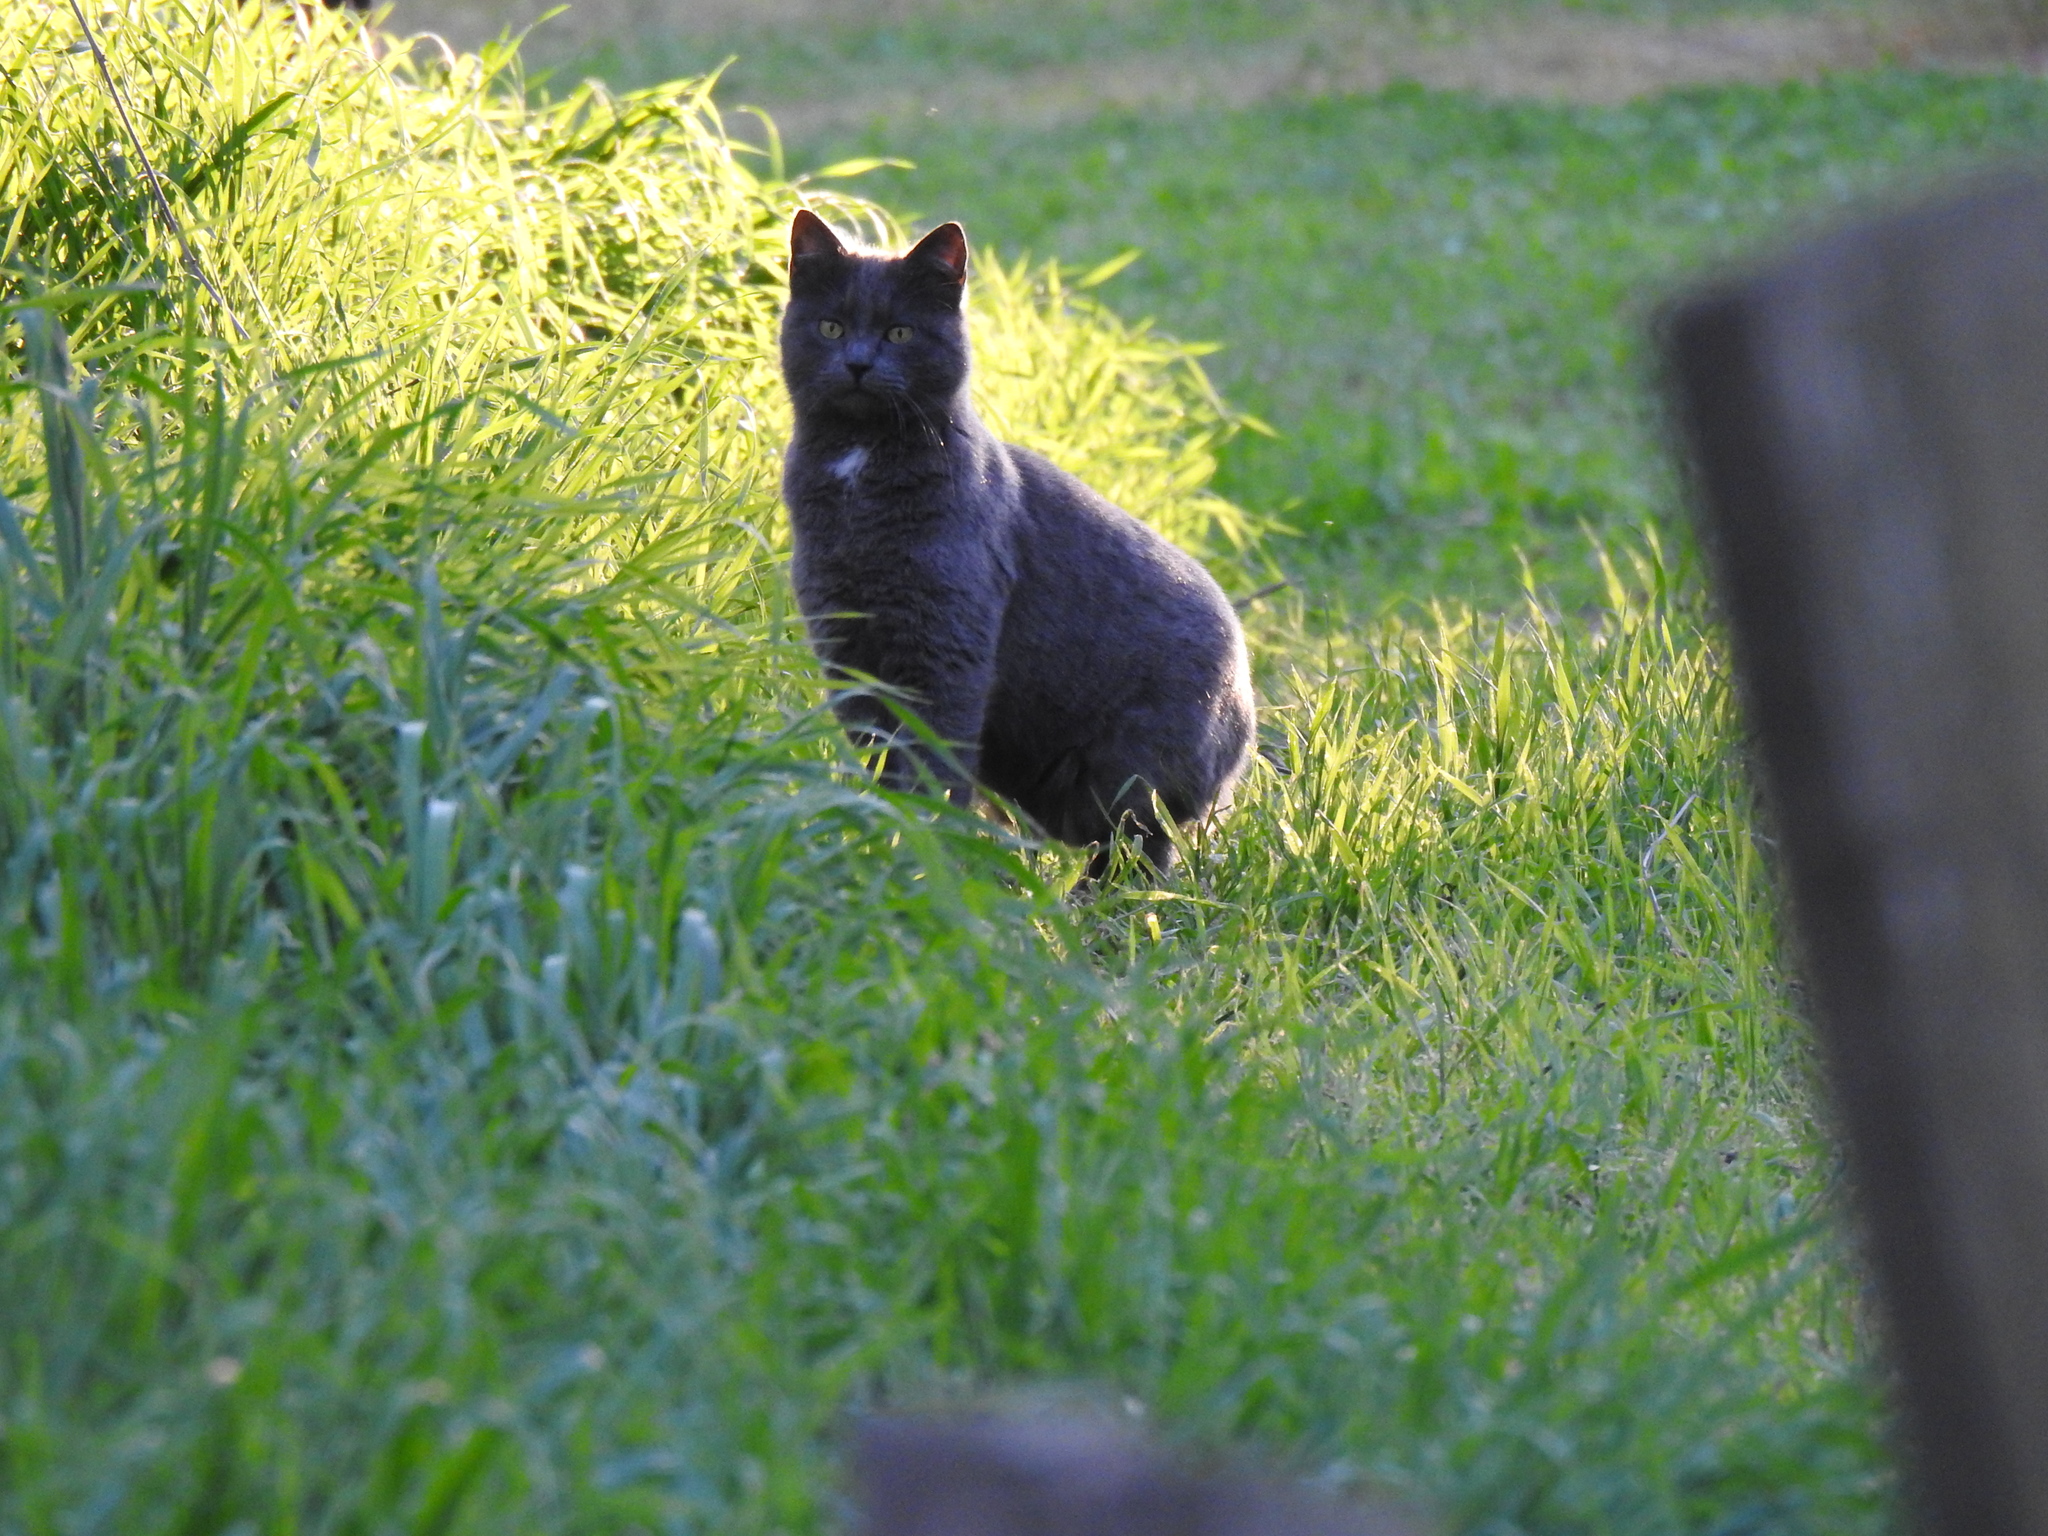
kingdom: Animalia
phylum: Chordata
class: Mammalia
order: Carnivora
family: Felidae
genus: Felis
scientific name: Felis catus
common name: Domestic cat
